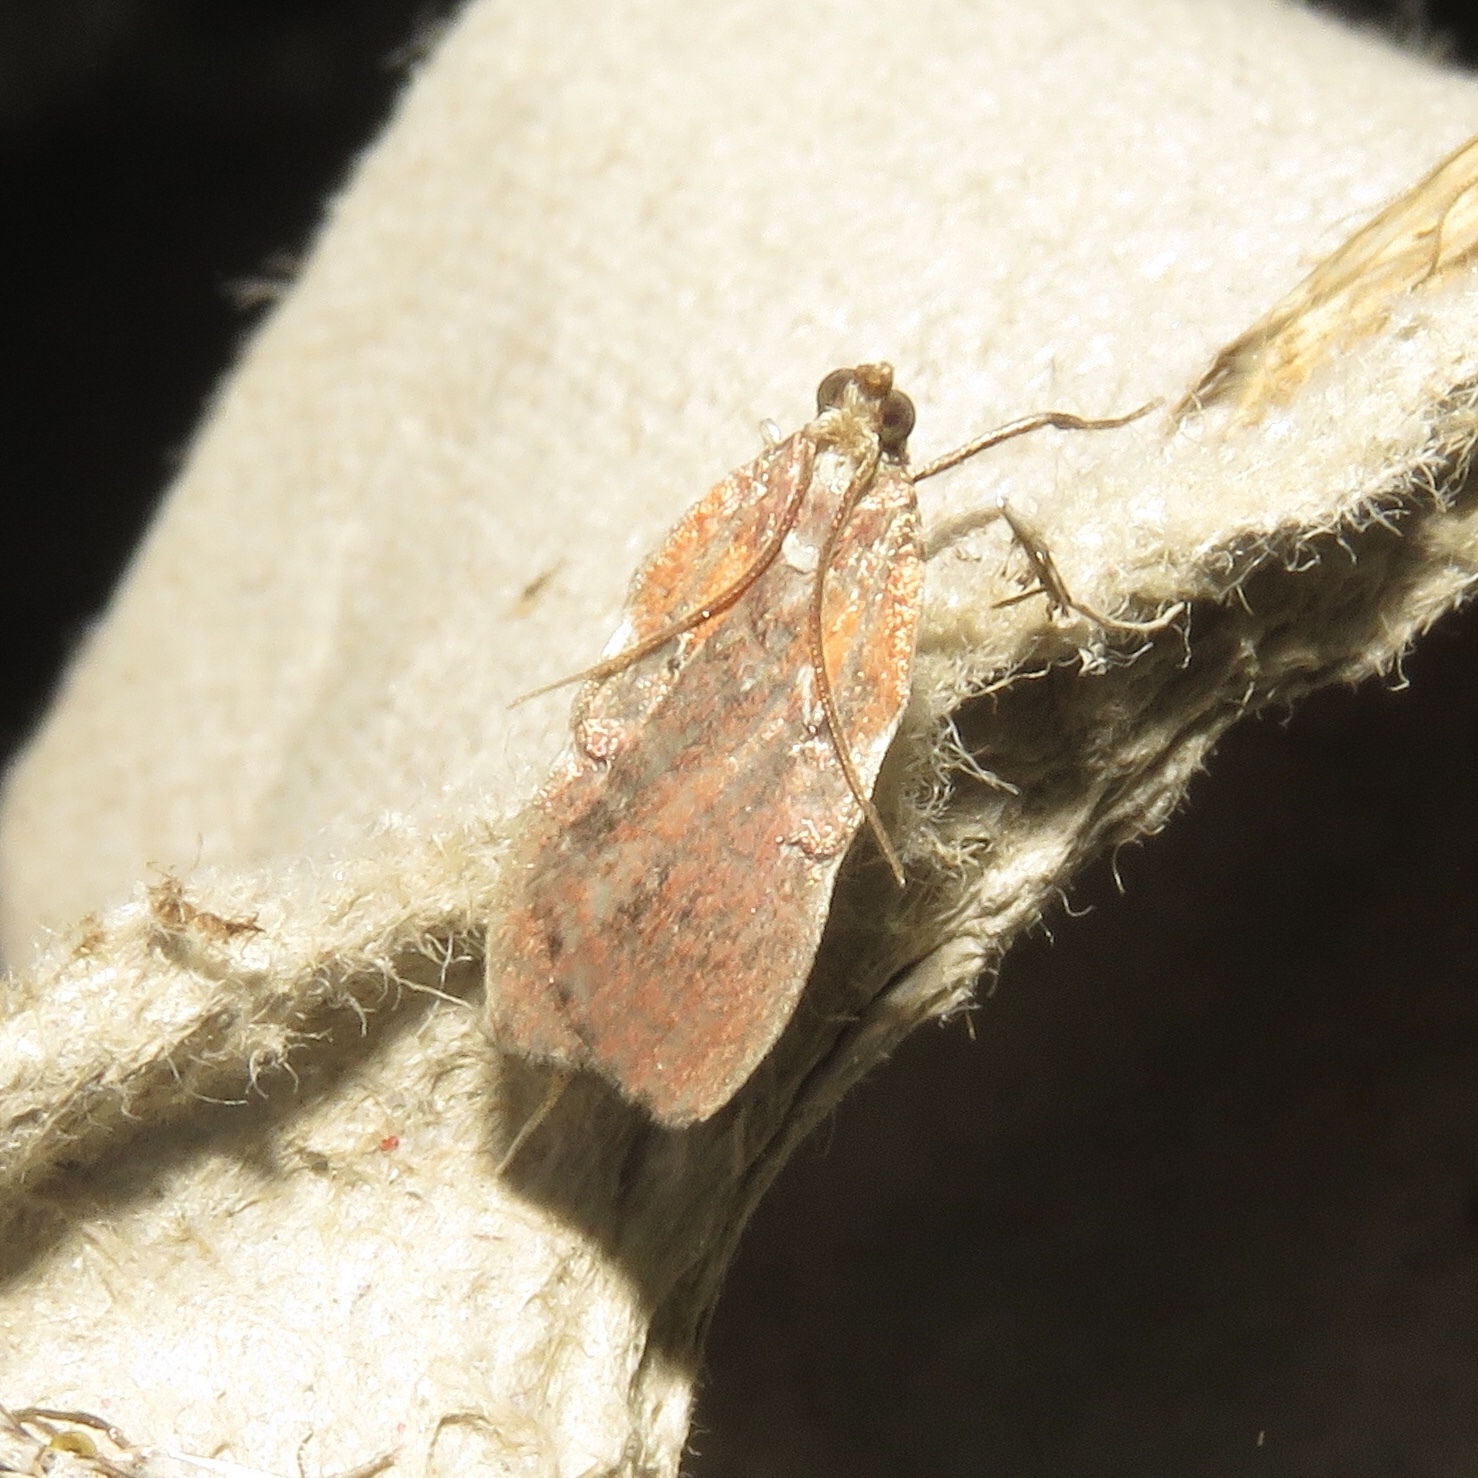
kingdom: Animalia
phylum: Arthropoda
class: Insecta
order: Lepidoptera
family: Pyralidae
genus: Galasa
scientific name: Galasa nigrinodis
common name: Boxwood leaftier moth
